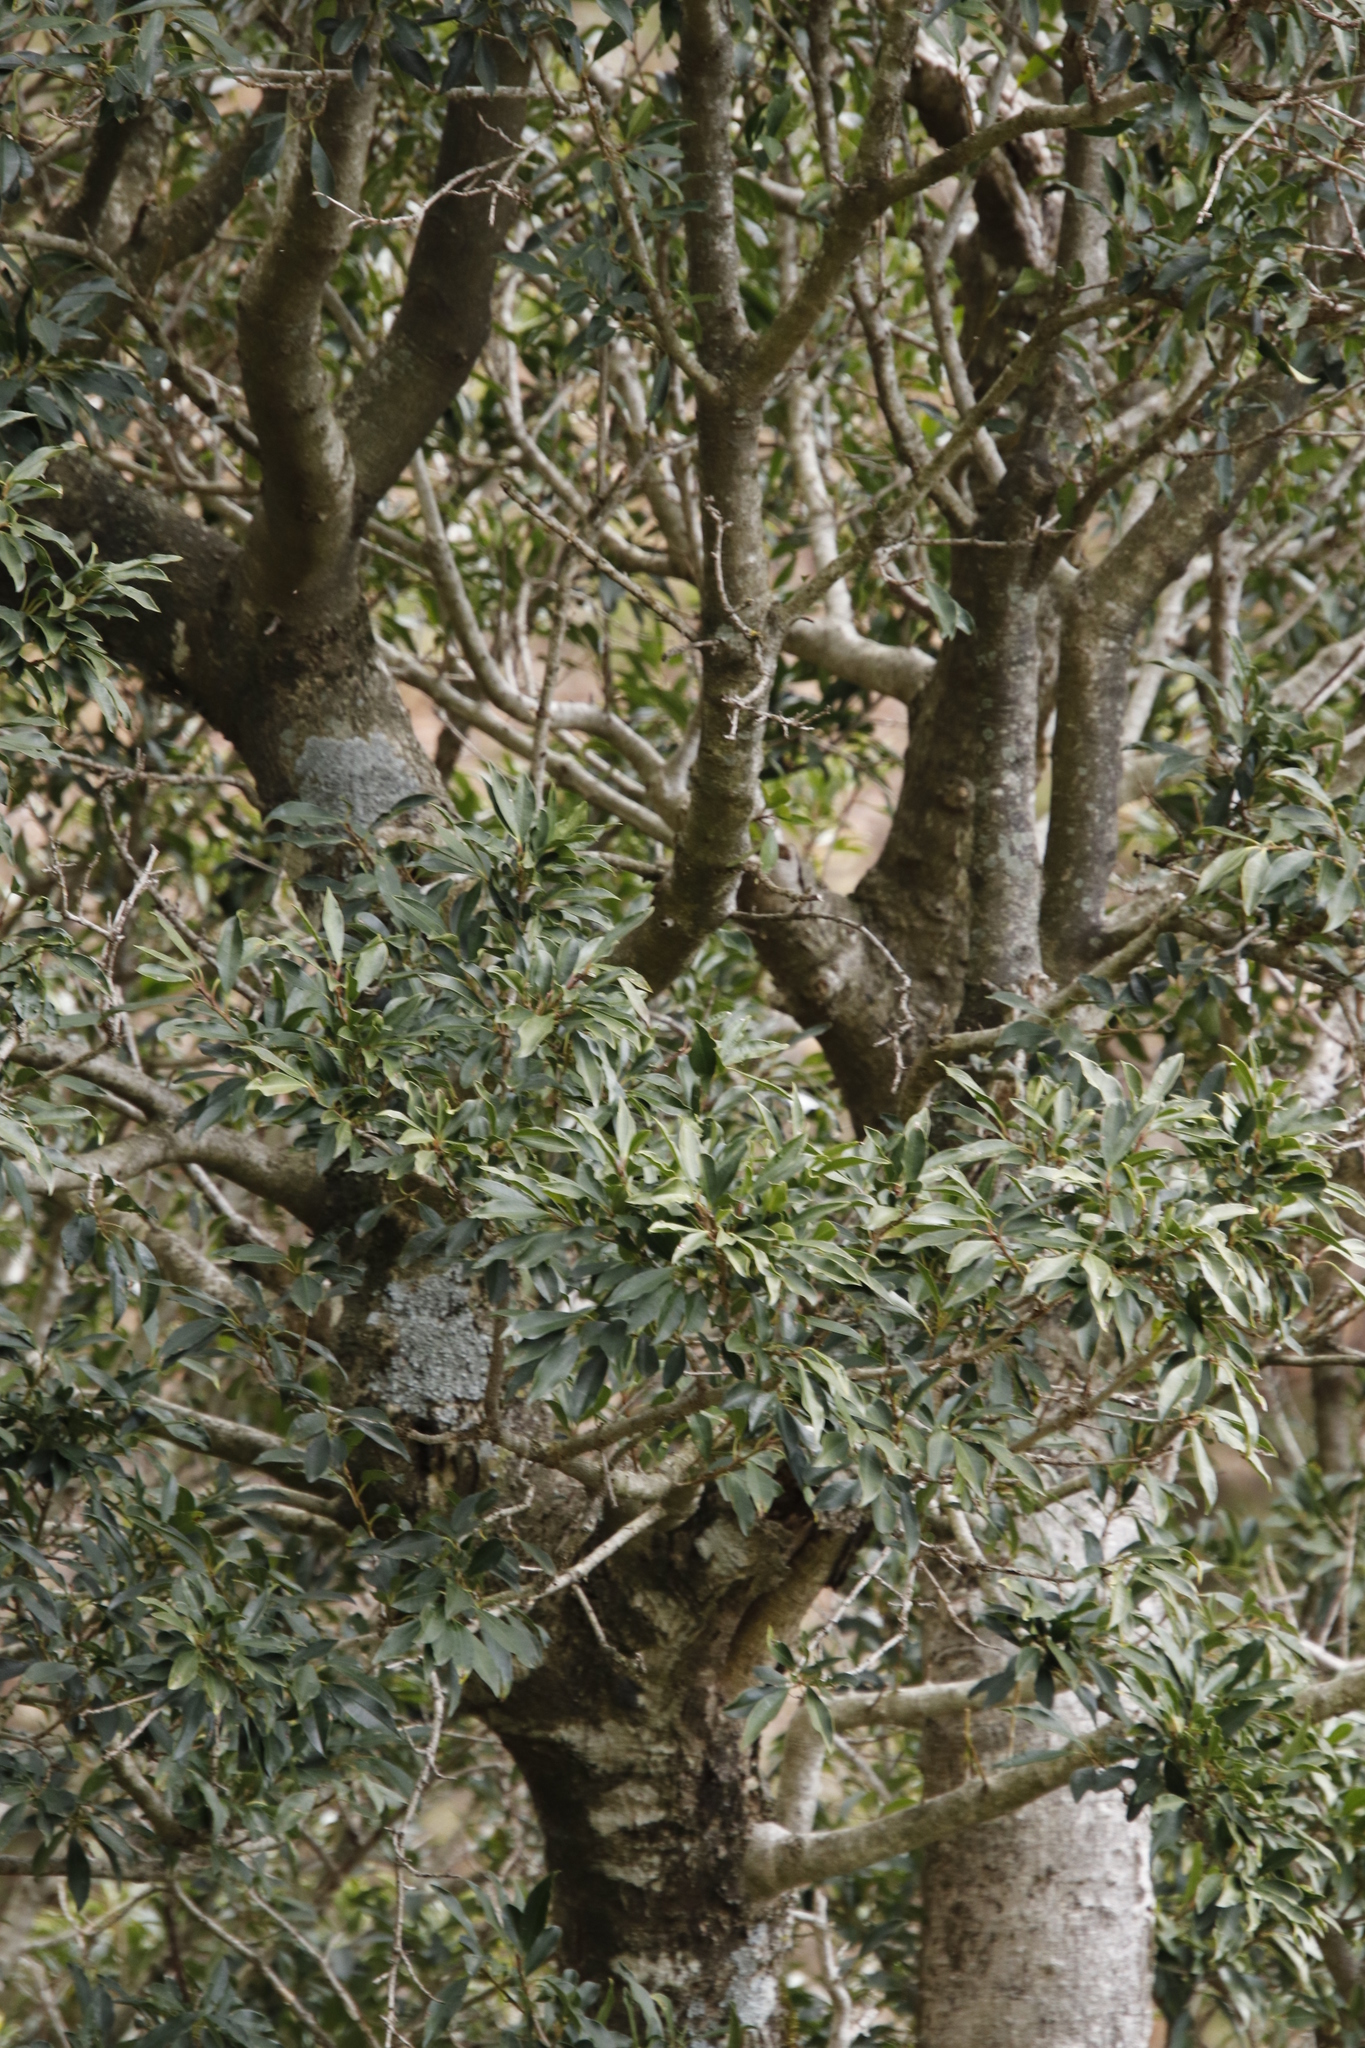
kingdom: Plantae
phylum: Tracheophyta
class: Magnoliopsida
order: Aquifoliales
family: Aquifoliaceae
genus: Ilex
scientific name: Ilex mitis
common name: African holly
